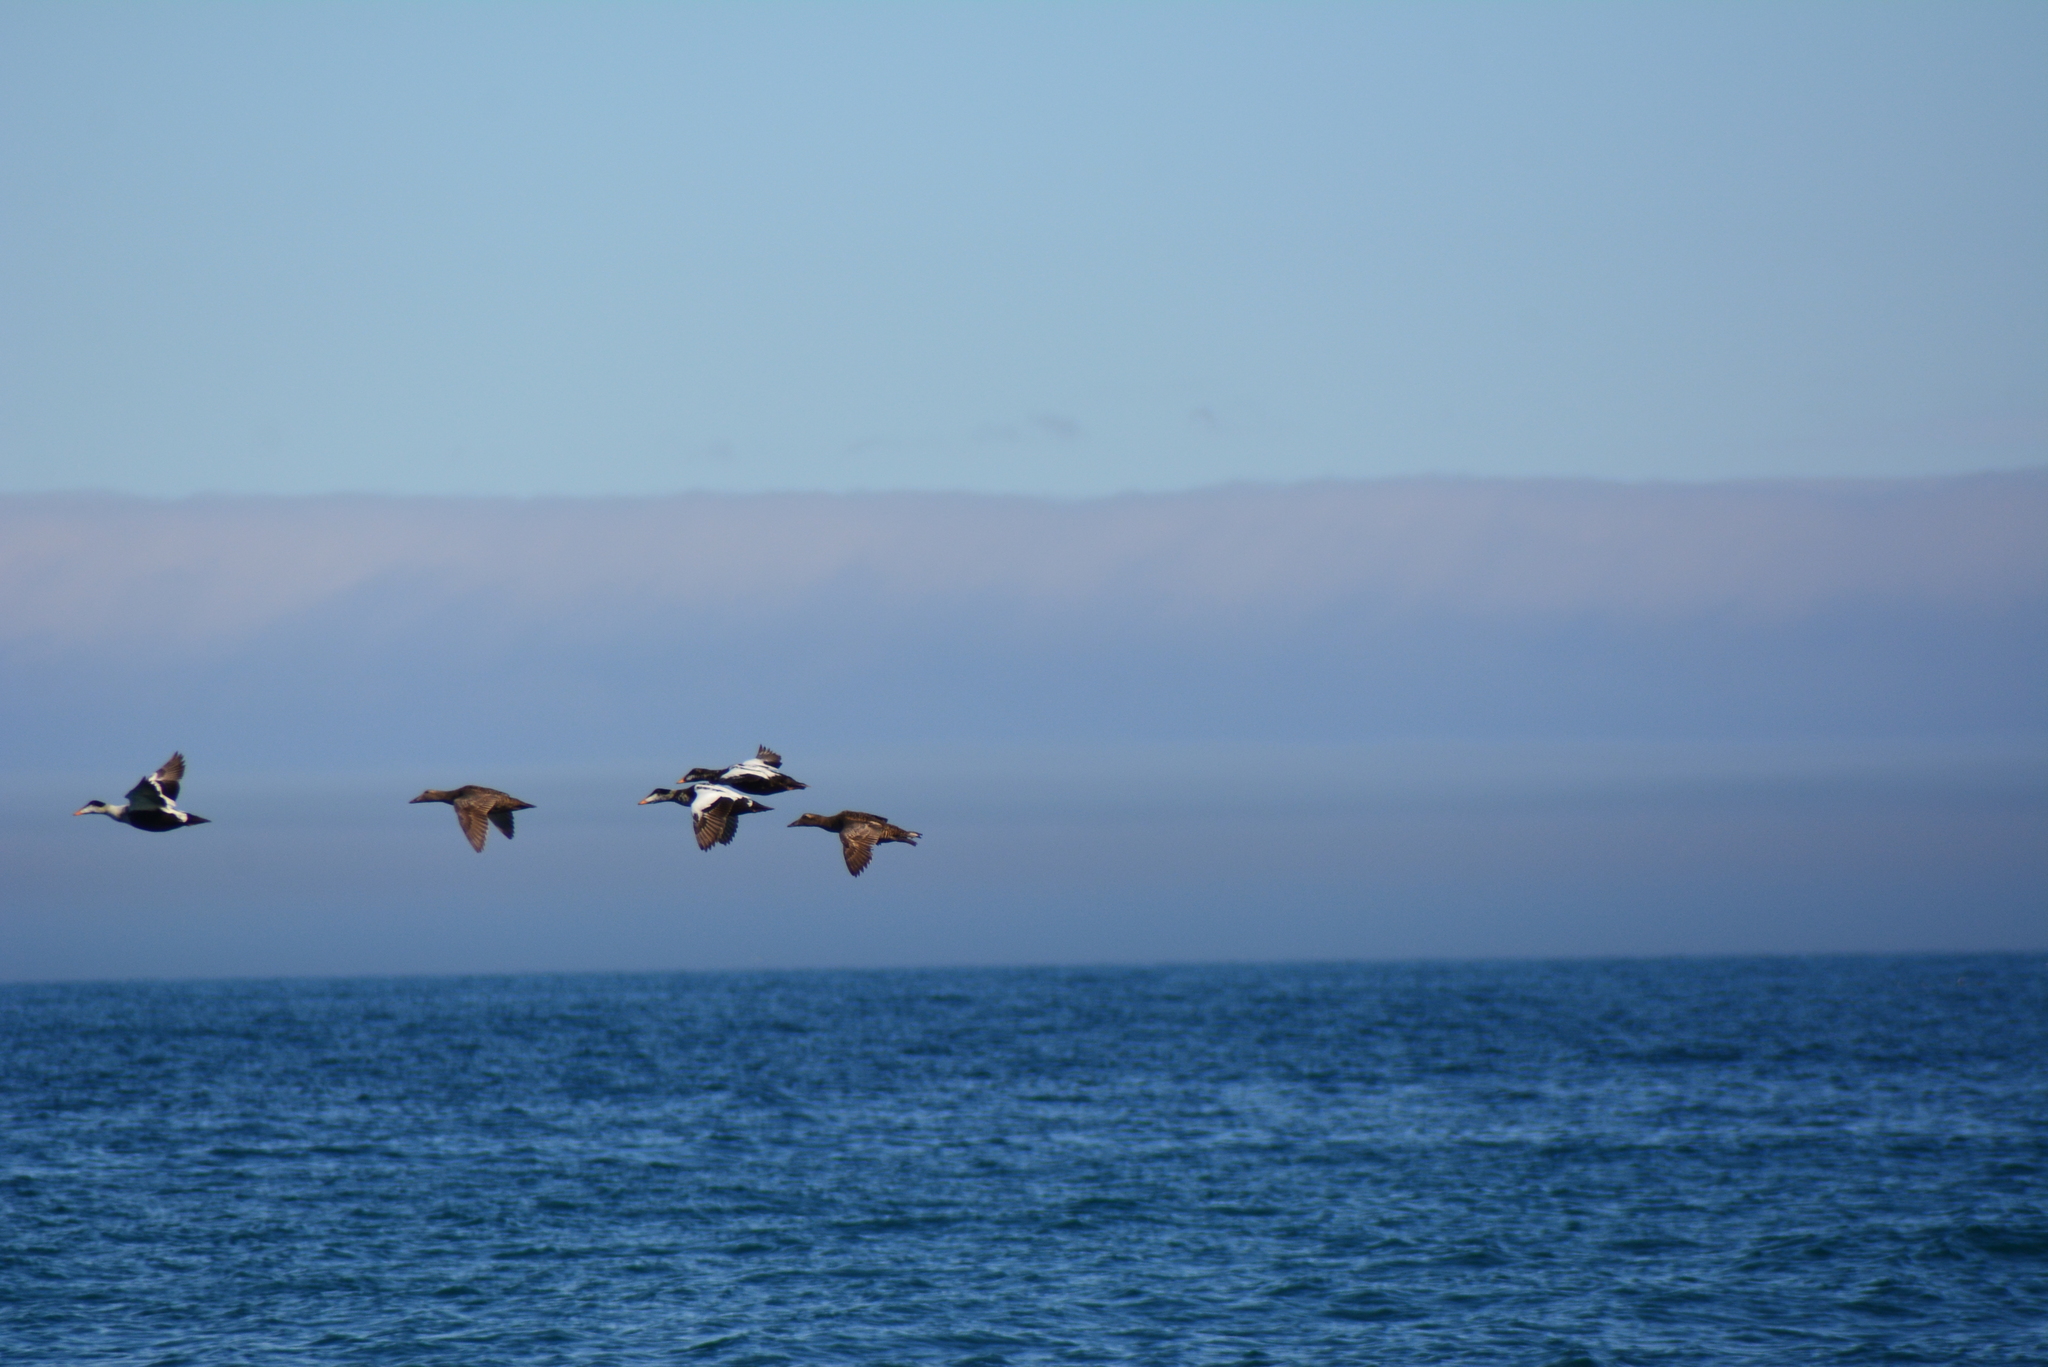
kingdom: Animalia
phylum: Chordata
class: Aves
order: Anseriformes
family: Anatidae
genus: Somateria
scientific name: Somateria mollissima
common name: Common eider
